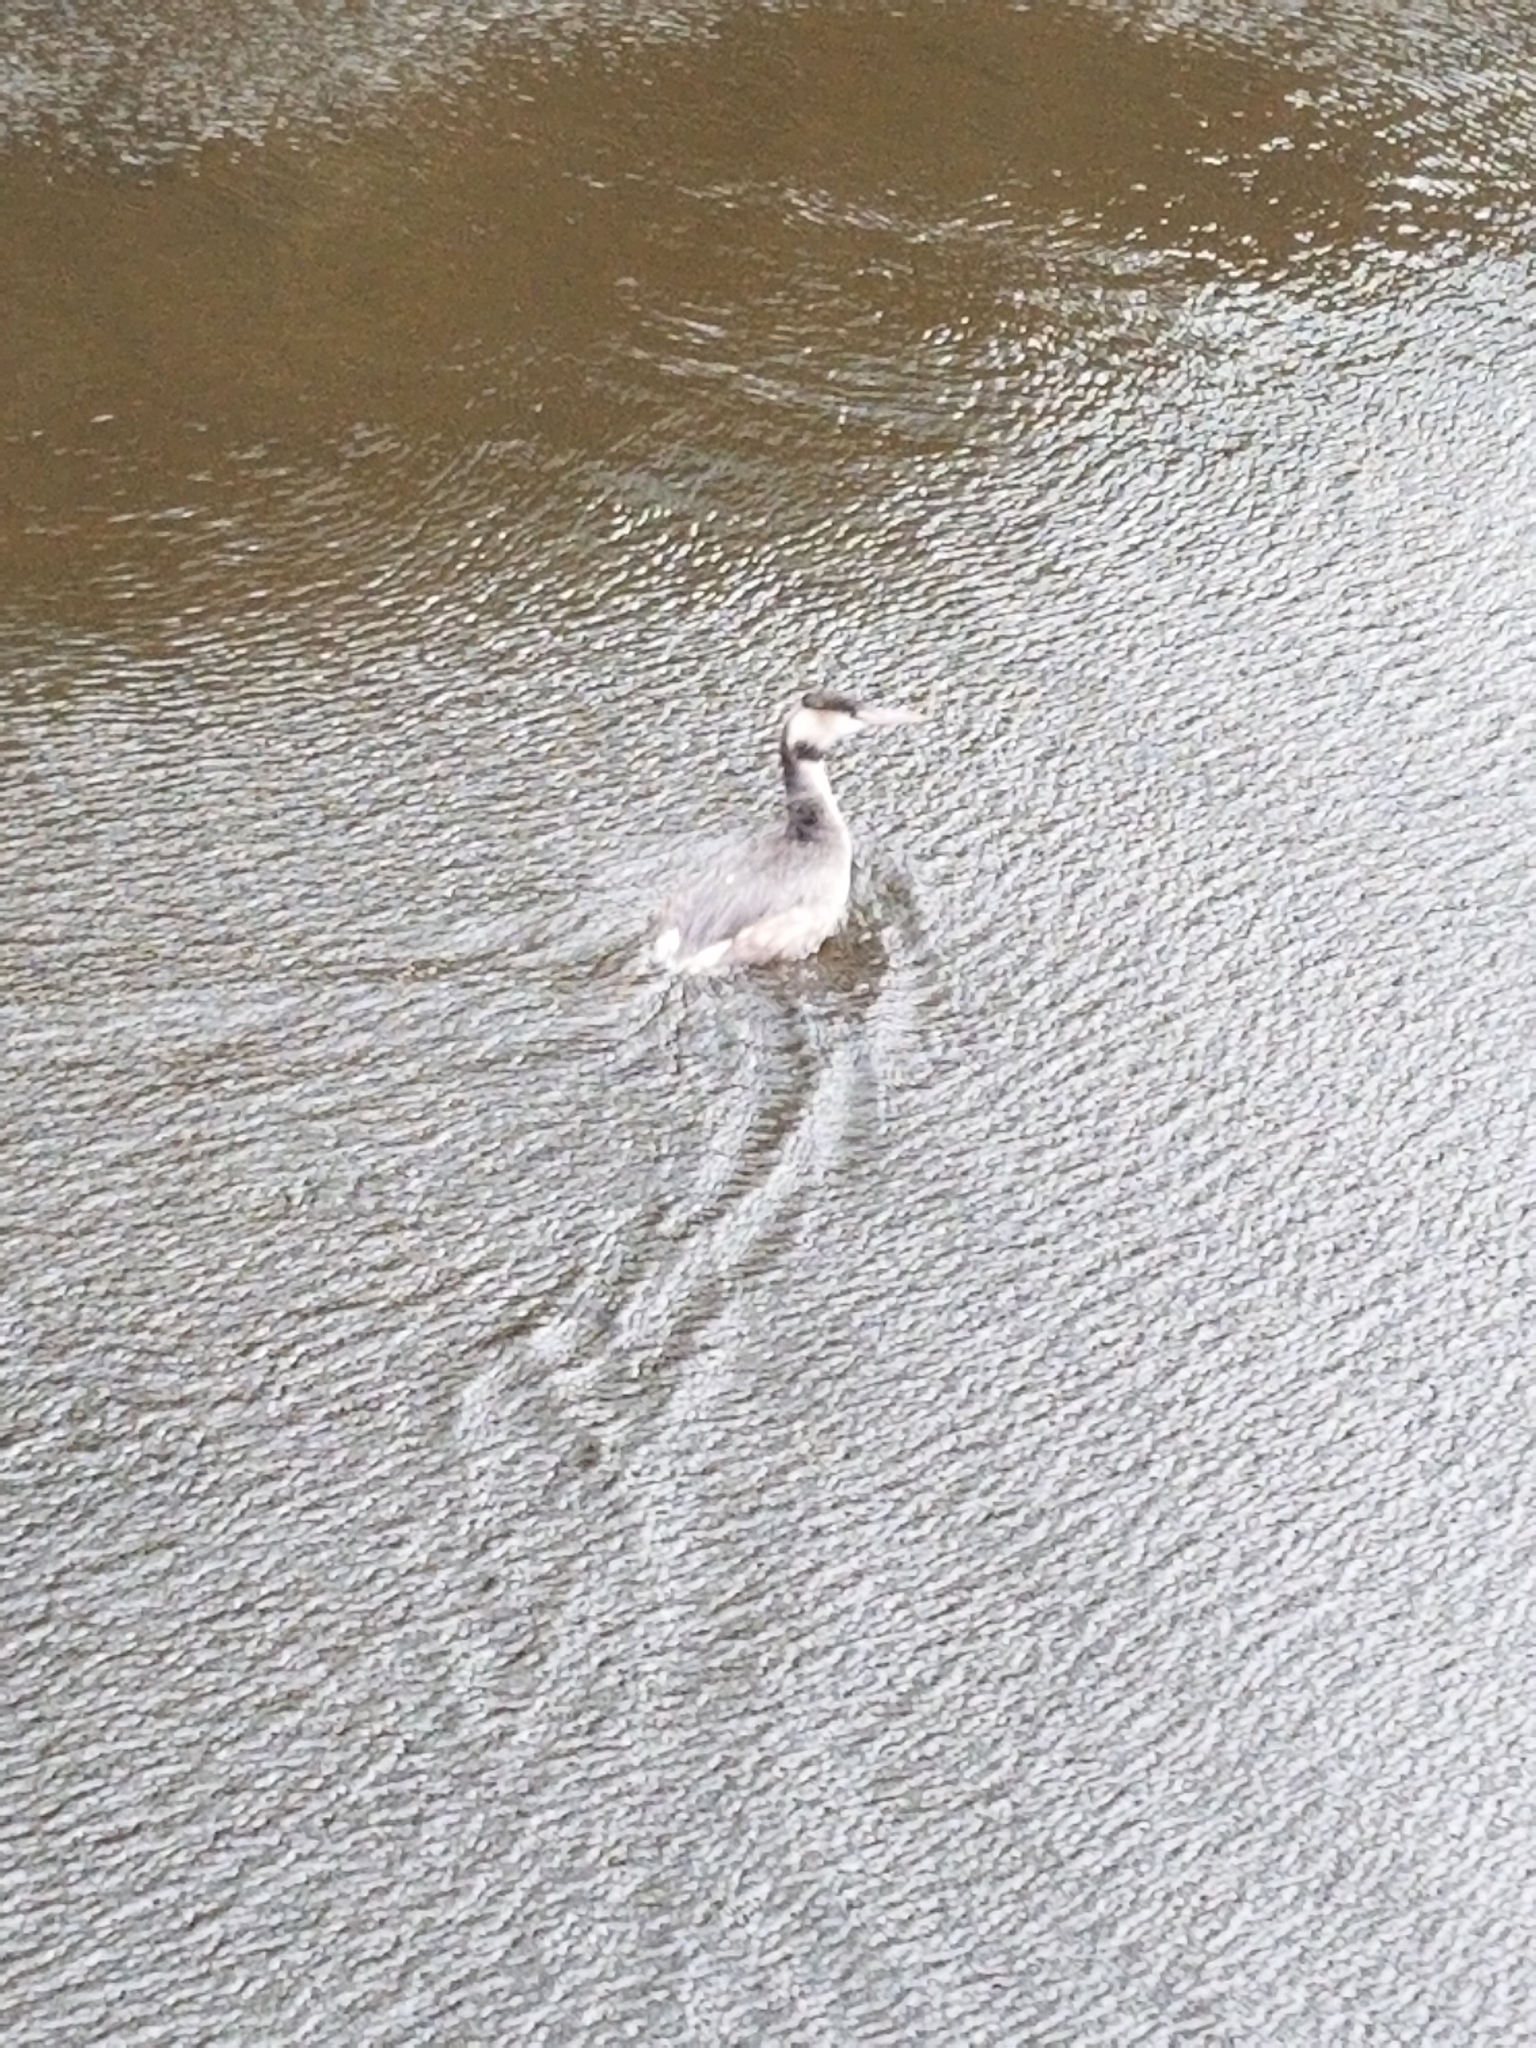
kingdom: Animalia
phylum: Chordata
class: Aves
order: Podicipediformes
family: Podicipedidae
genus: Podiceps
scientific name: Podiceps cristatus
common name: Great crested grebe
